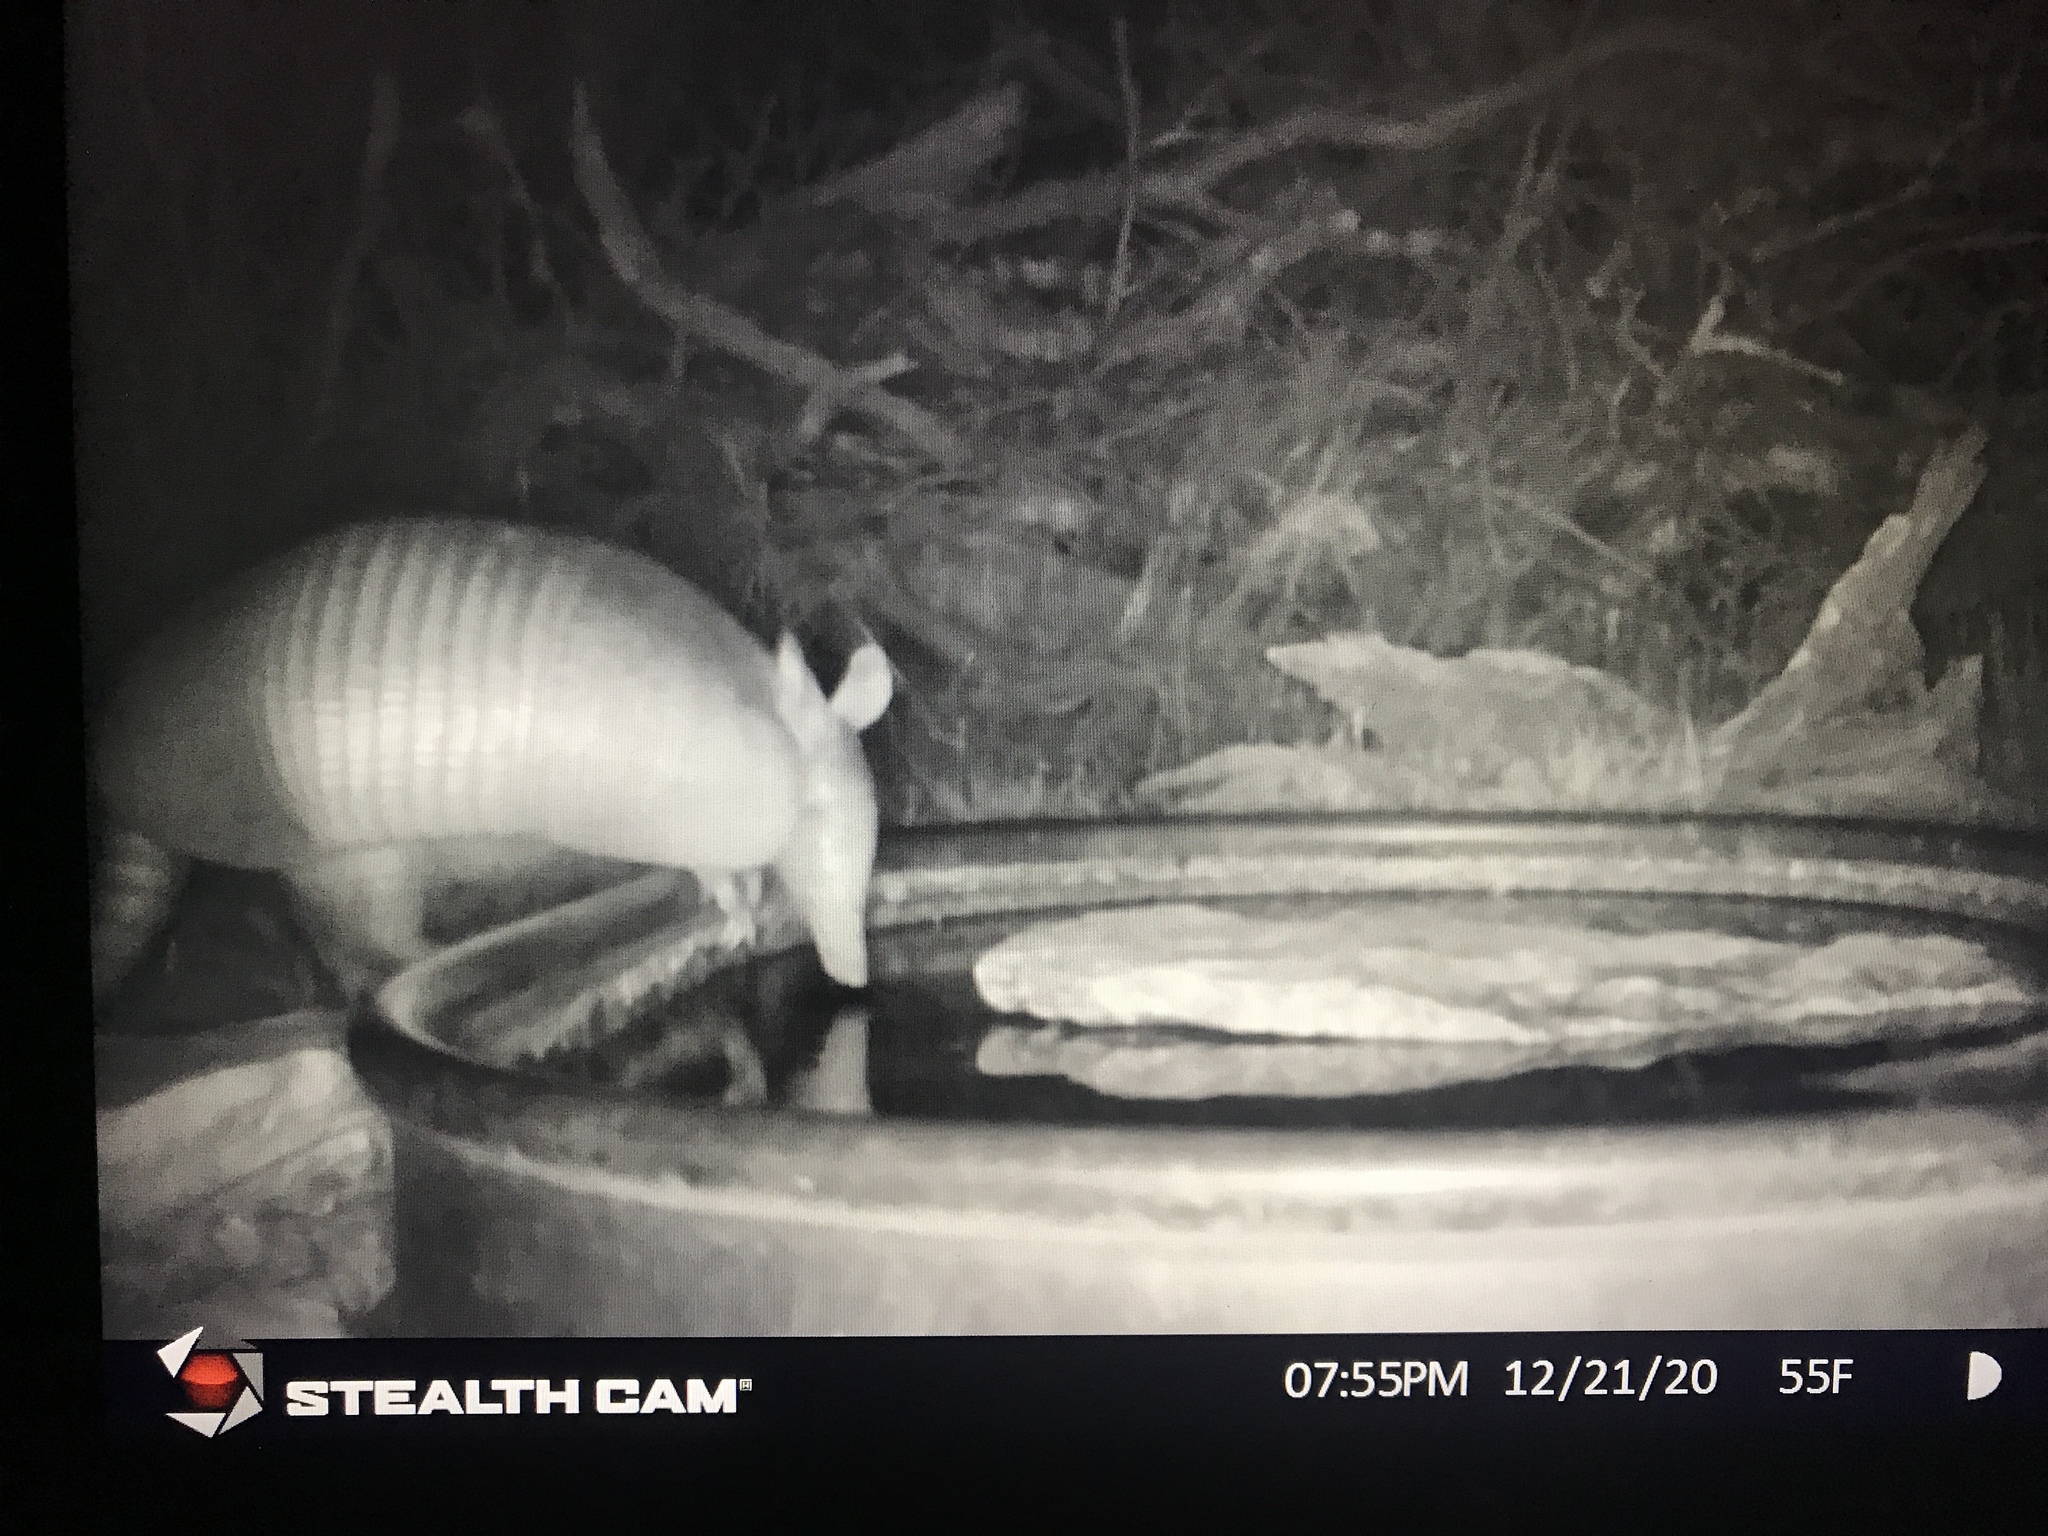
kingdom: Animalia
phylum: Chordata
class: Mammalia
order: Cingulata
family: Dasypodidae
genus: Dasypus
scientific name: Dasypus novemcinctus
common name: Nine-banded armadillo
